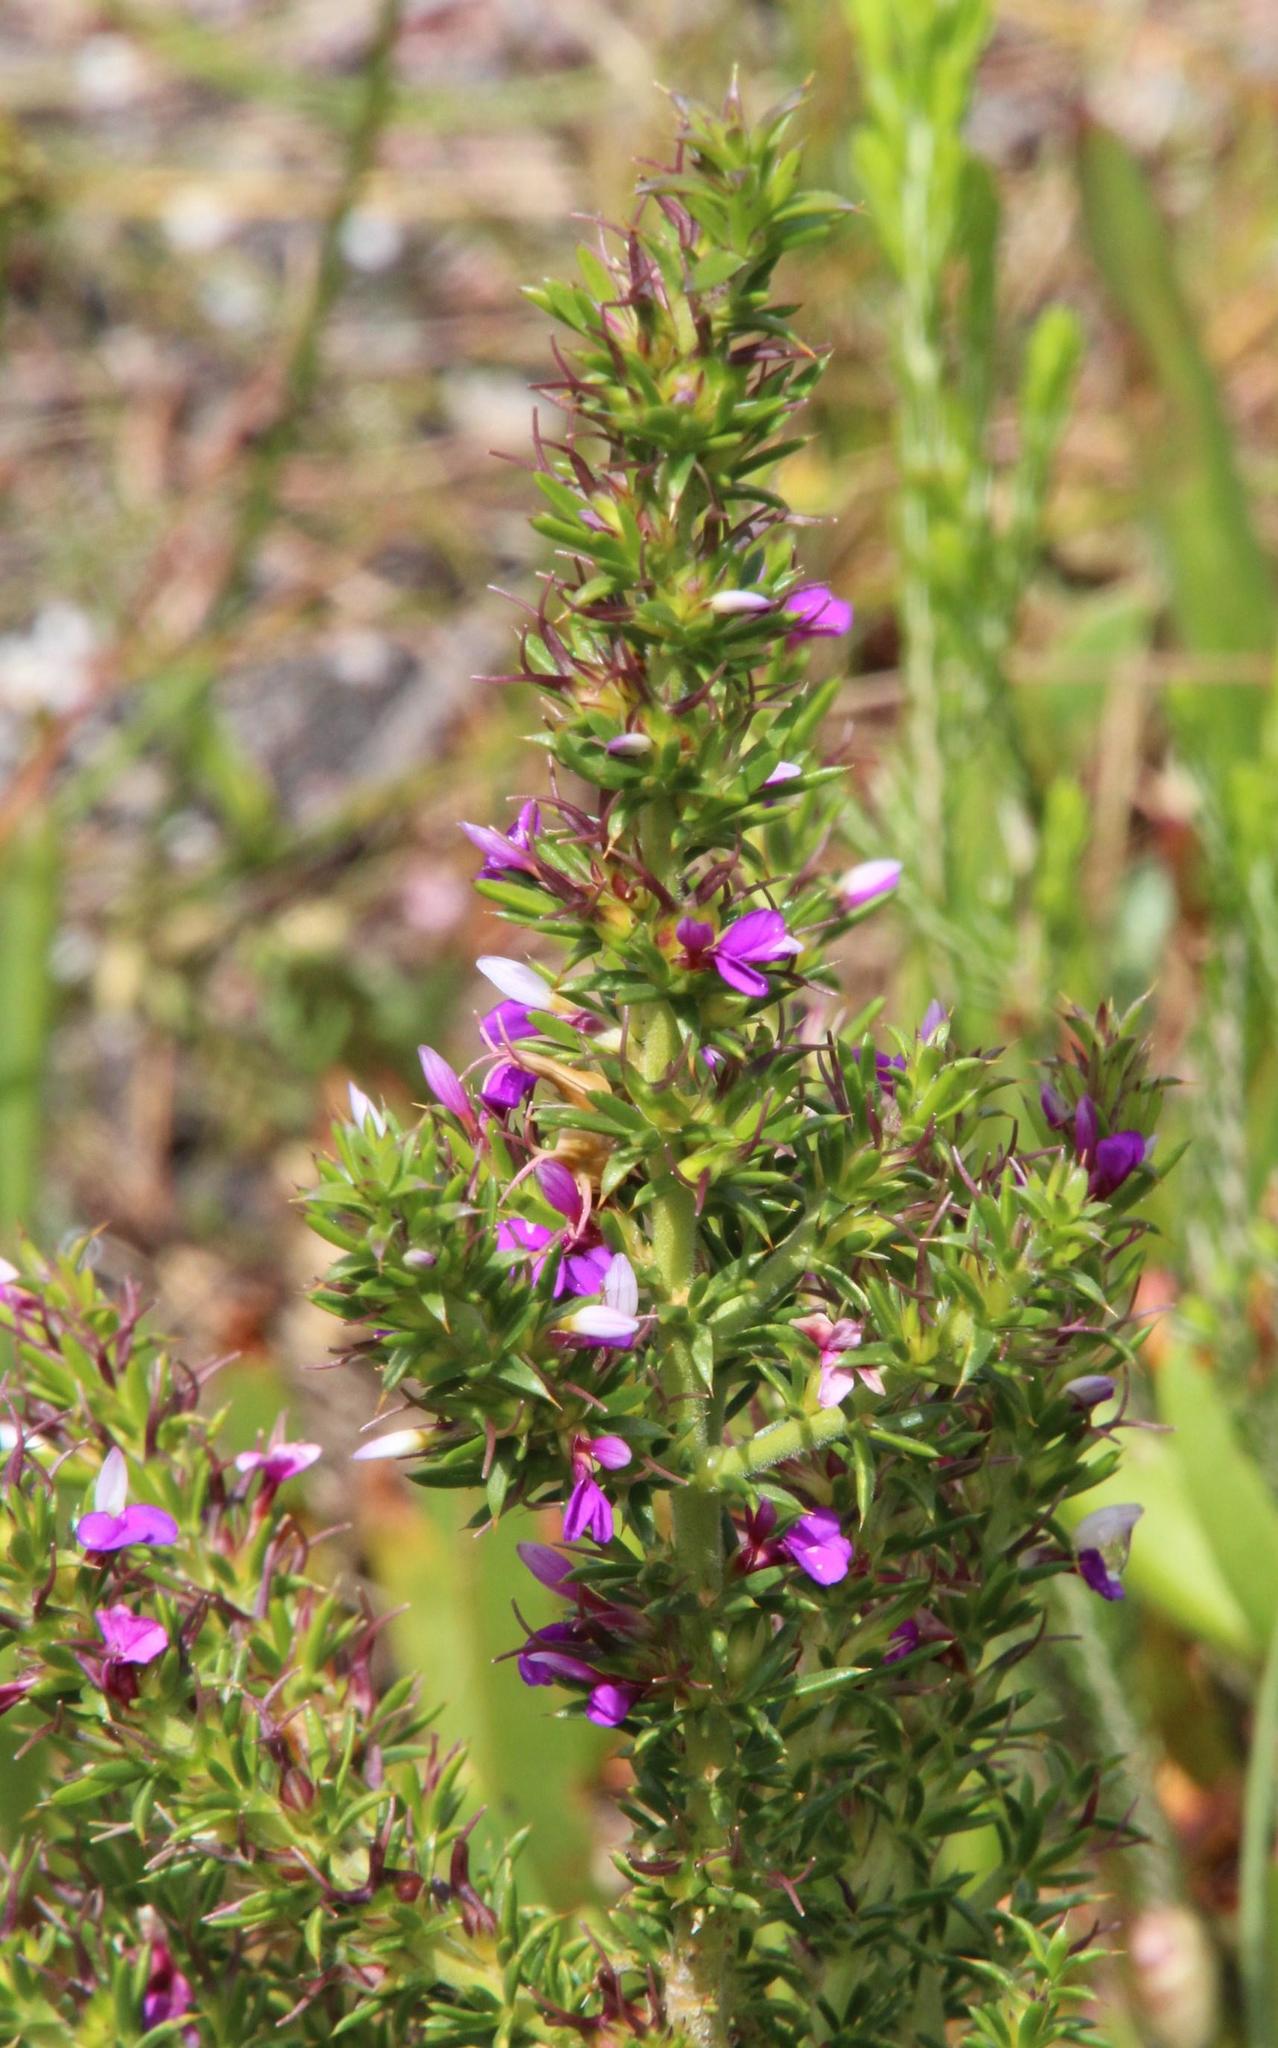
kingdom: Plantae
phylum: Tracheophyta
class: Magnoliopsida
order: Fabales
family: Polygalaceae
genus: Muraltia
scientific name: Muraltia heisteria
